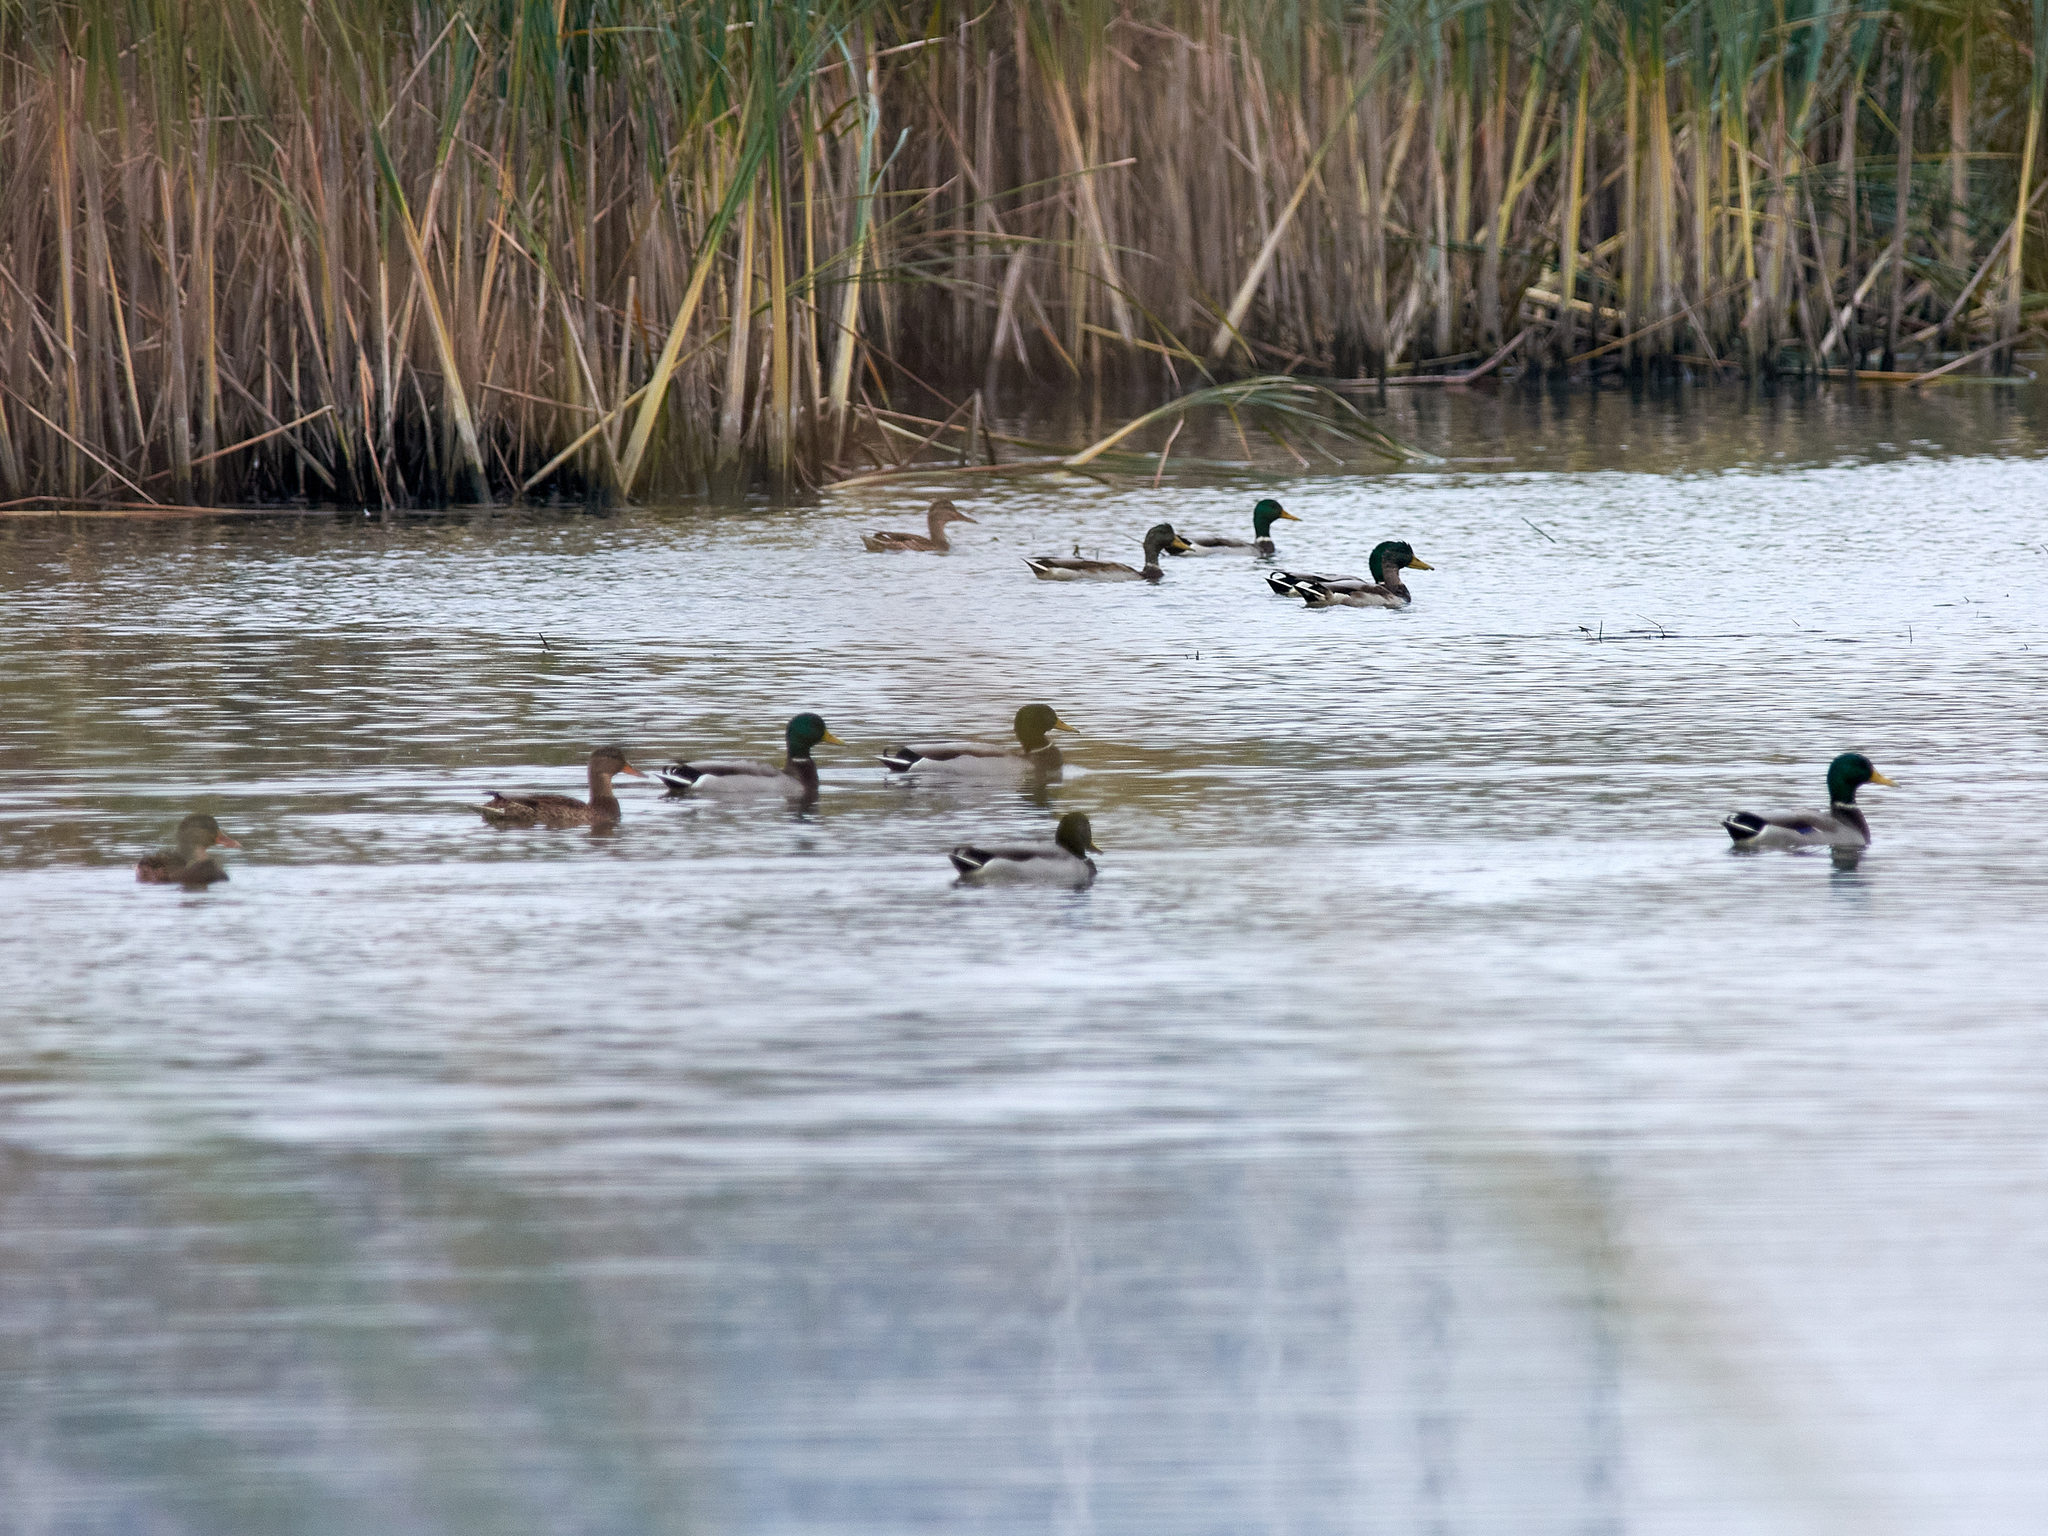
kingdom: Animalia
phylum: Chordata
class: Aves
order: Anseriformes
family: Anatidae
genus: Anas
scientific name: Anas platyrhynchos
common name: Mallard
